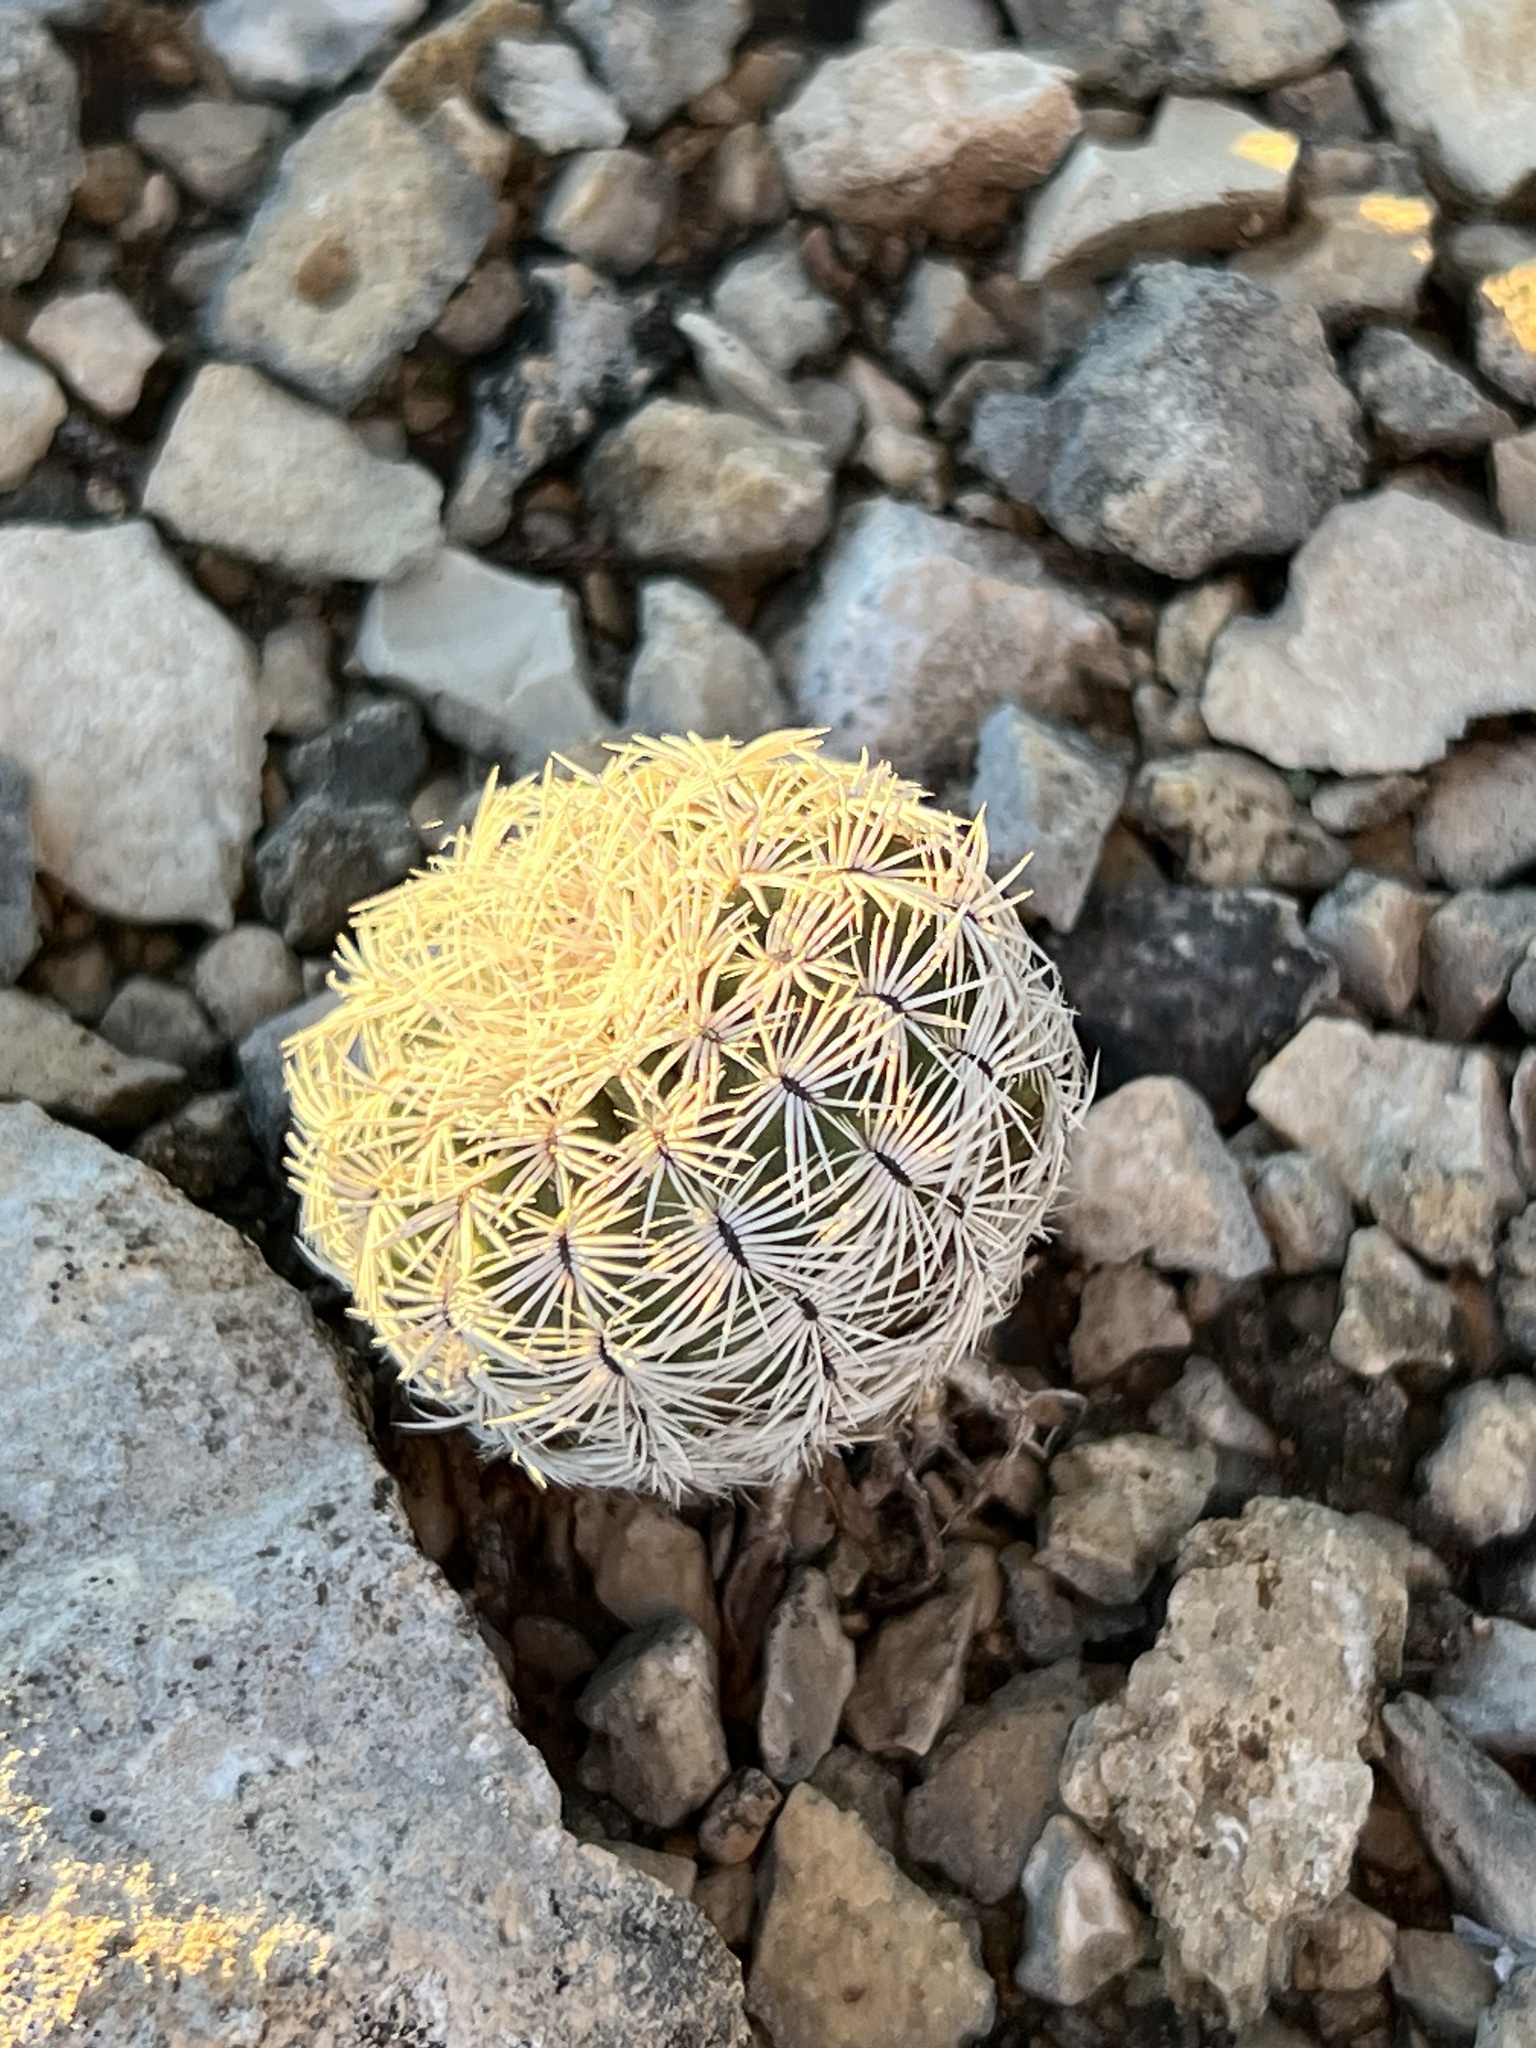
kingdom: Plantae
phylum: Tracheophyta
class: Magnoliopsida
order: Caryophyllales
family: Cactaceae
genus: Echinocereus
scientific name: Echinocereus reichenbachii
